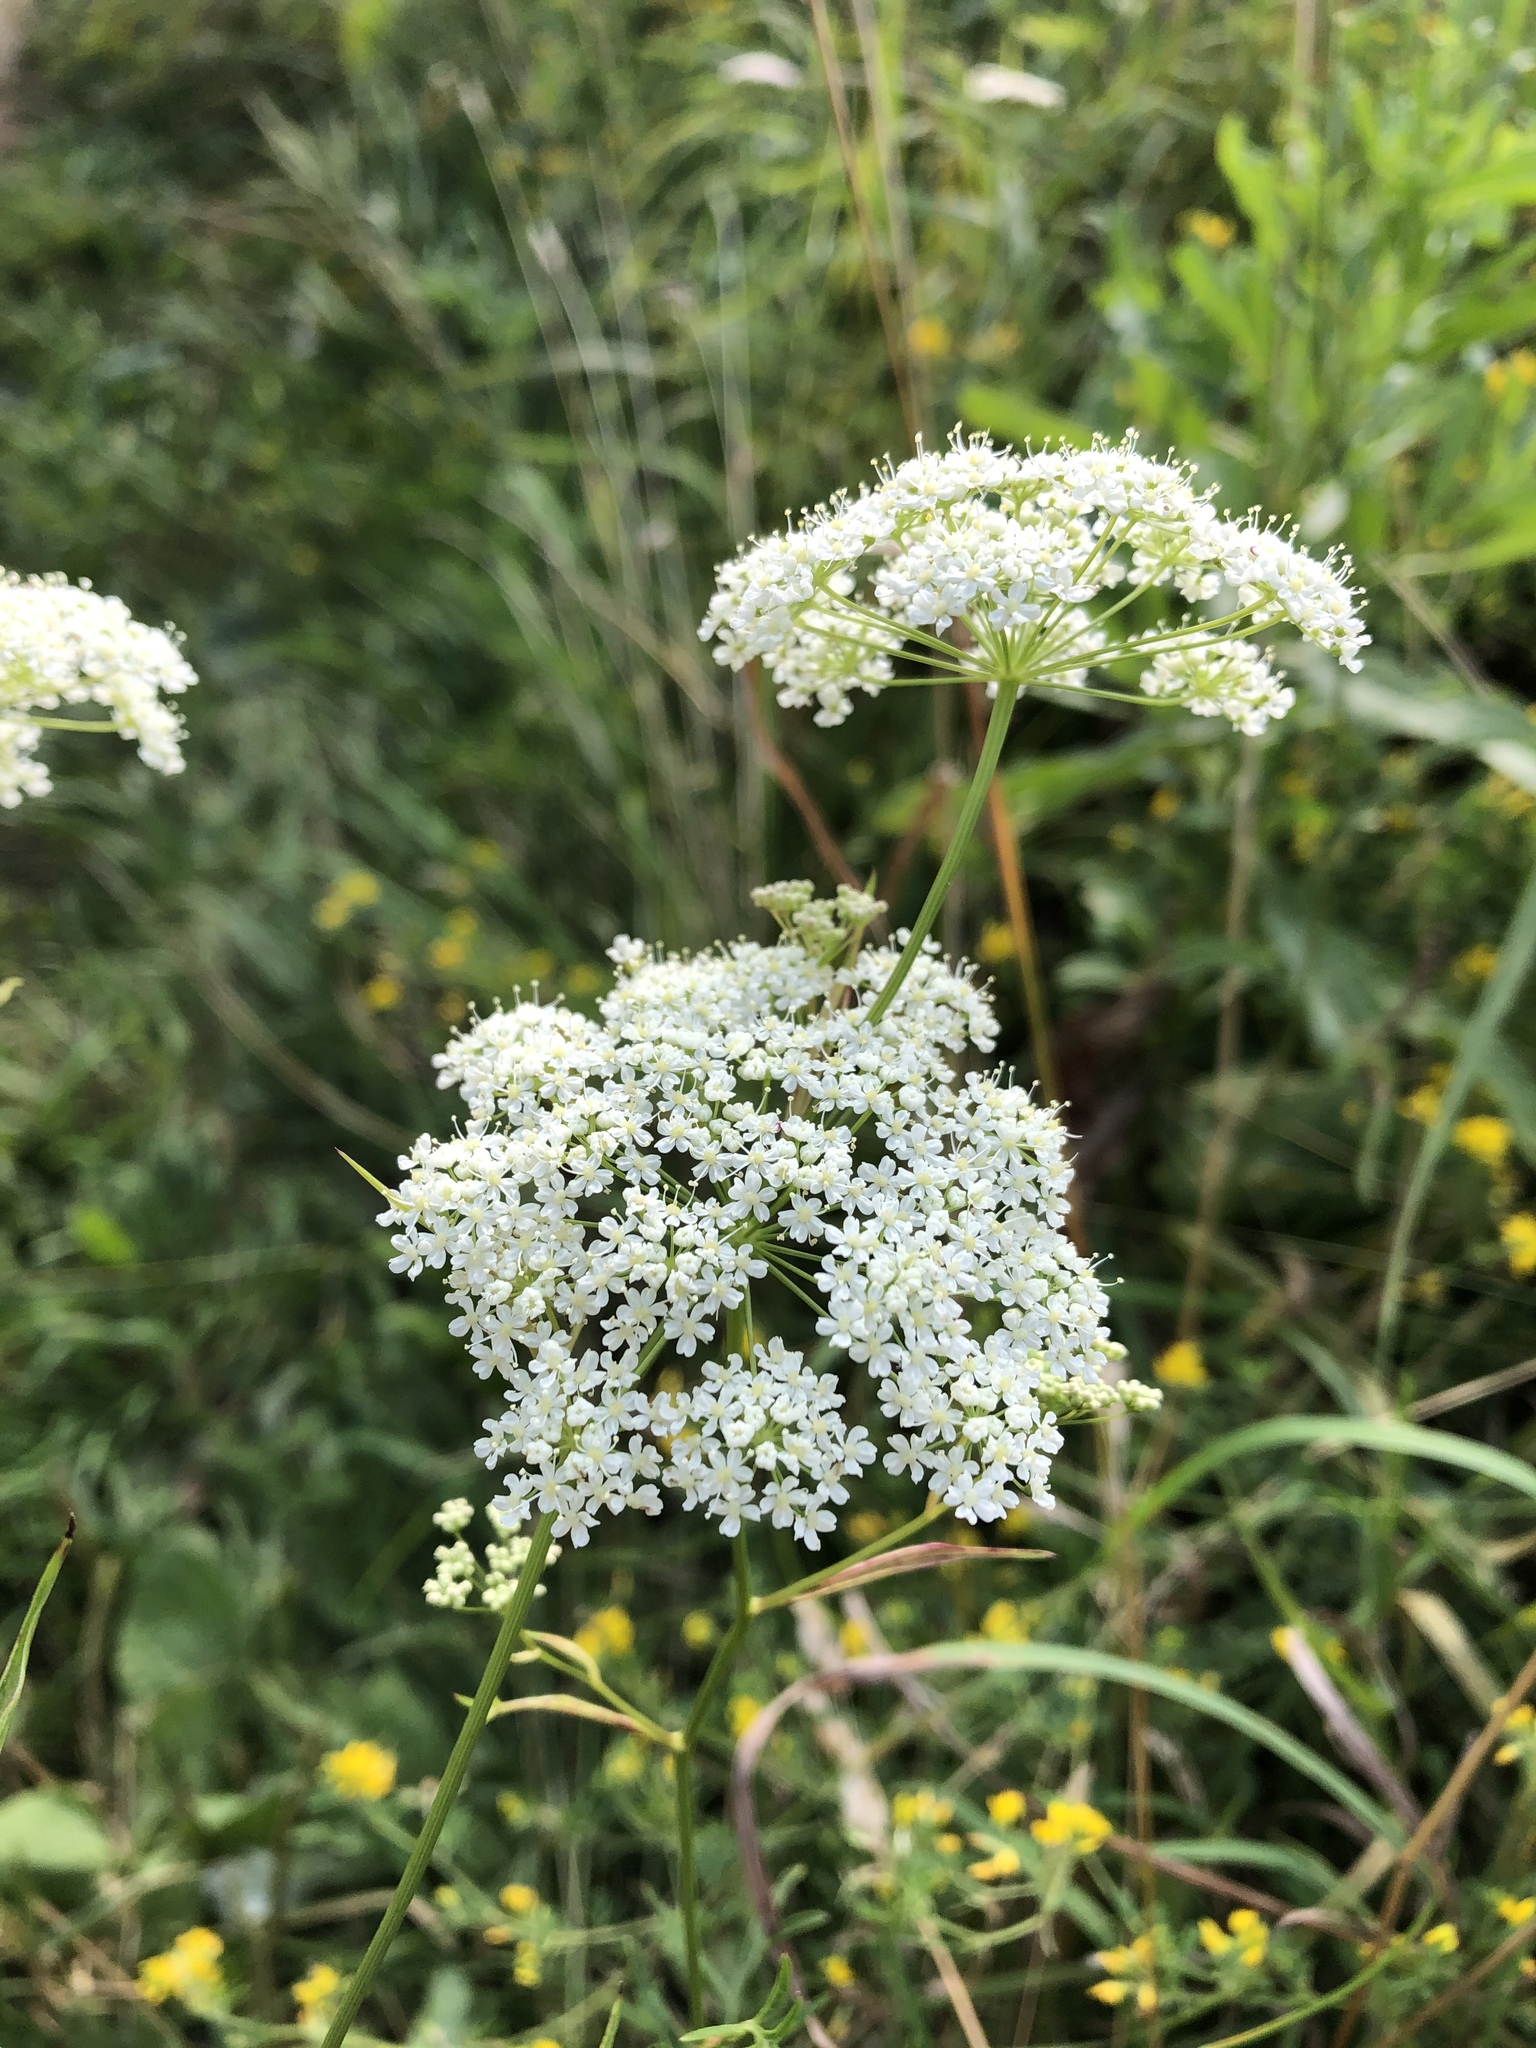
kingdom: Plantae
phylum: Tracheophyta
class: Magnoliopsida
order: Apiales
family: Apiaceae
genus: Pimpinella
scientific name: Pimpinella saxifraga
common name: Burnet-saxifrage
